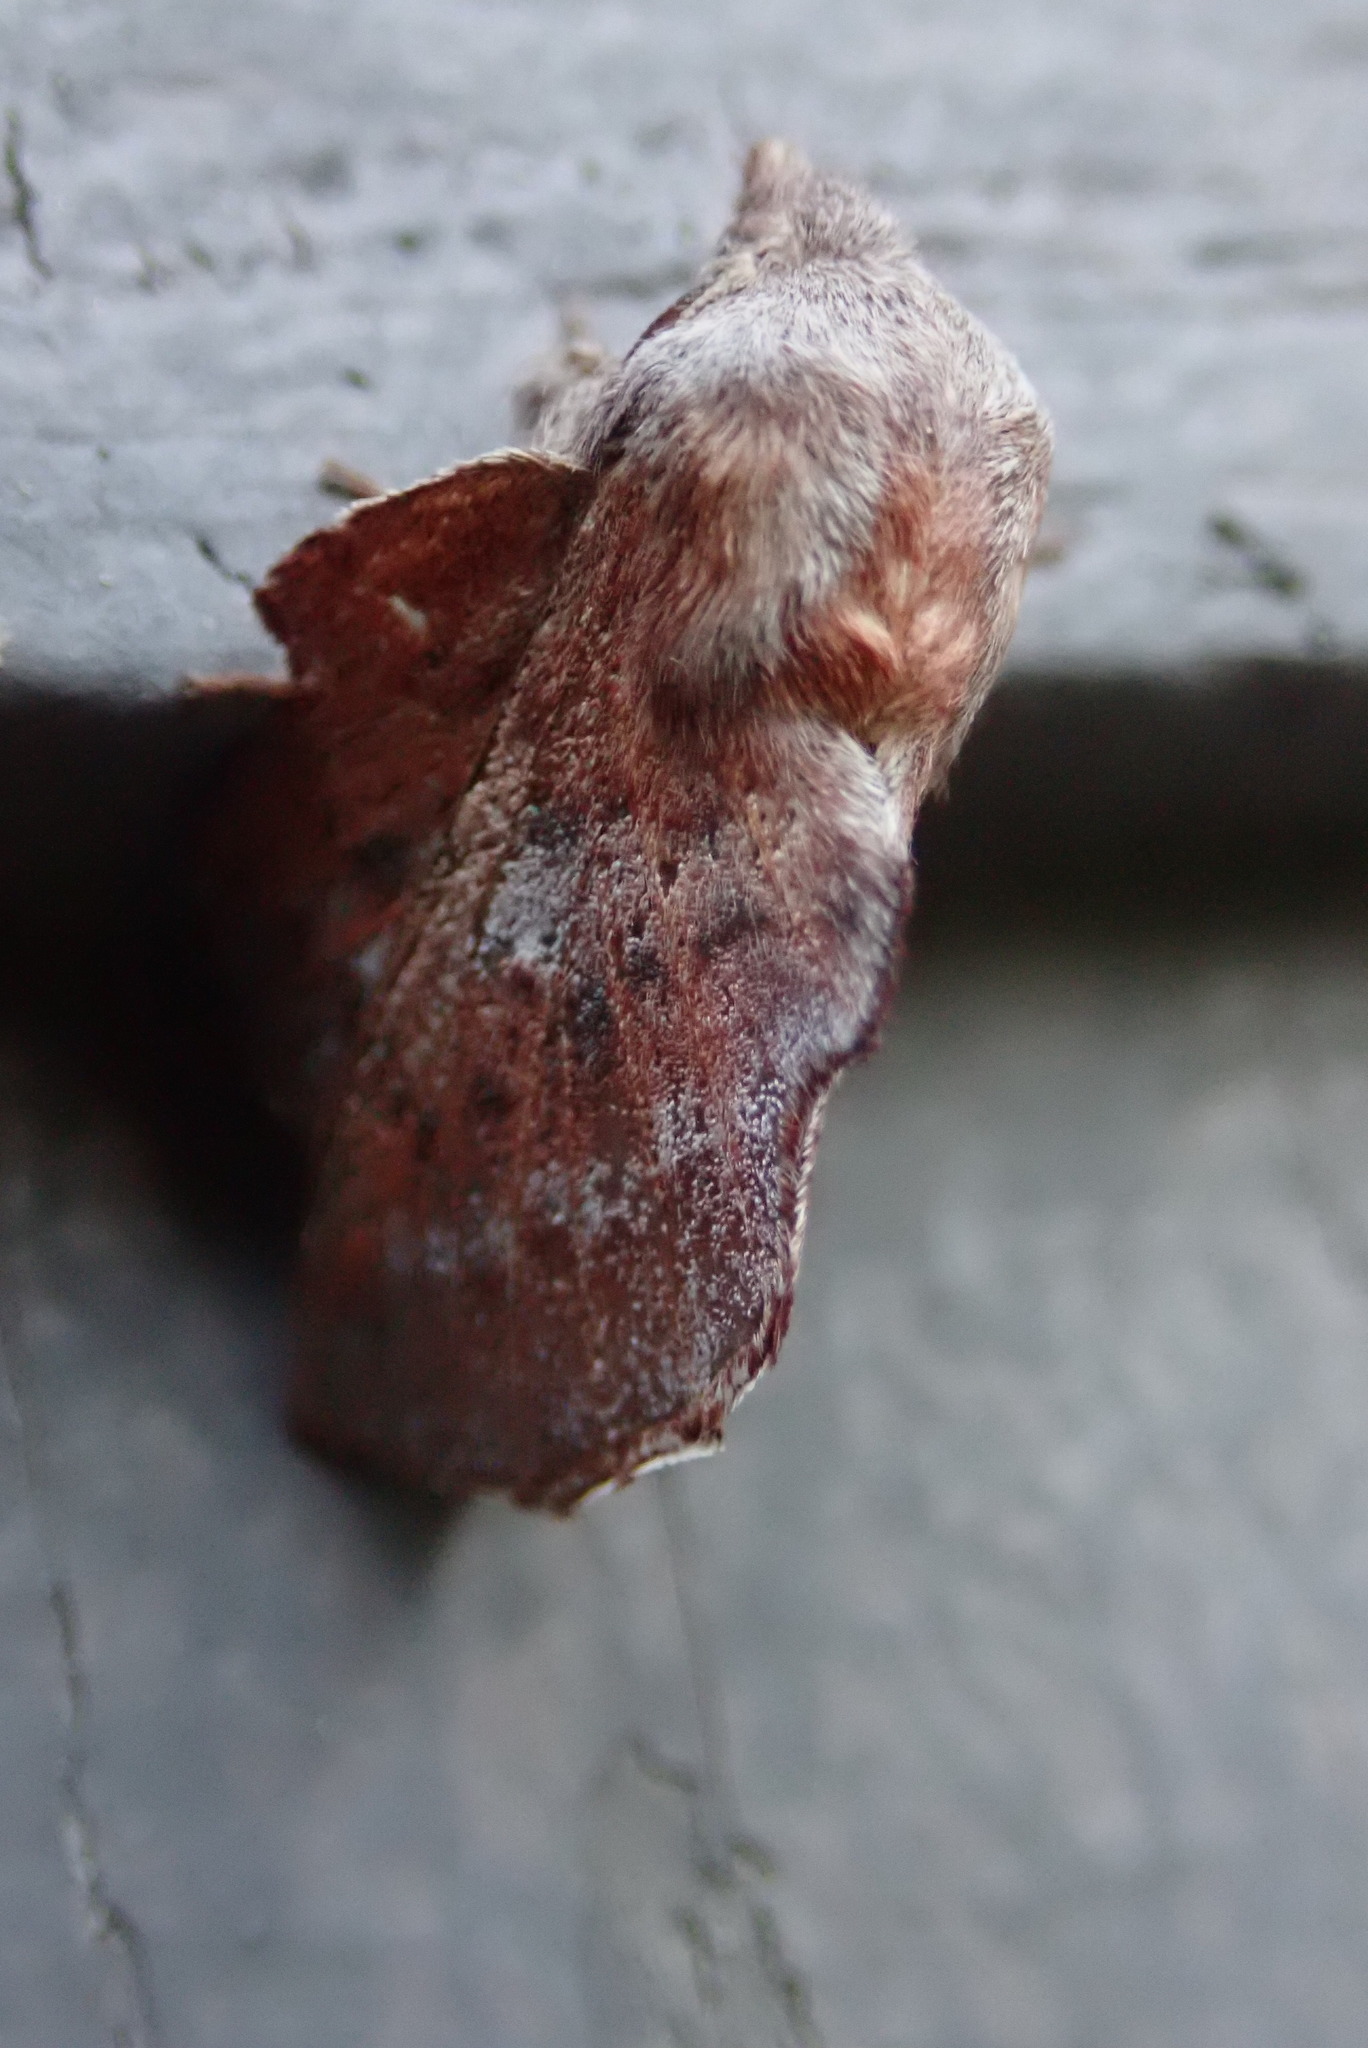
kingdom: Animalia
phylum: Arthropoda
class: Insecta
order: Lepidoptera
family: Lasiocampidae
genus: Phyllodesma
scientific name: Phyllodesma americana
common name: American lappet moth
